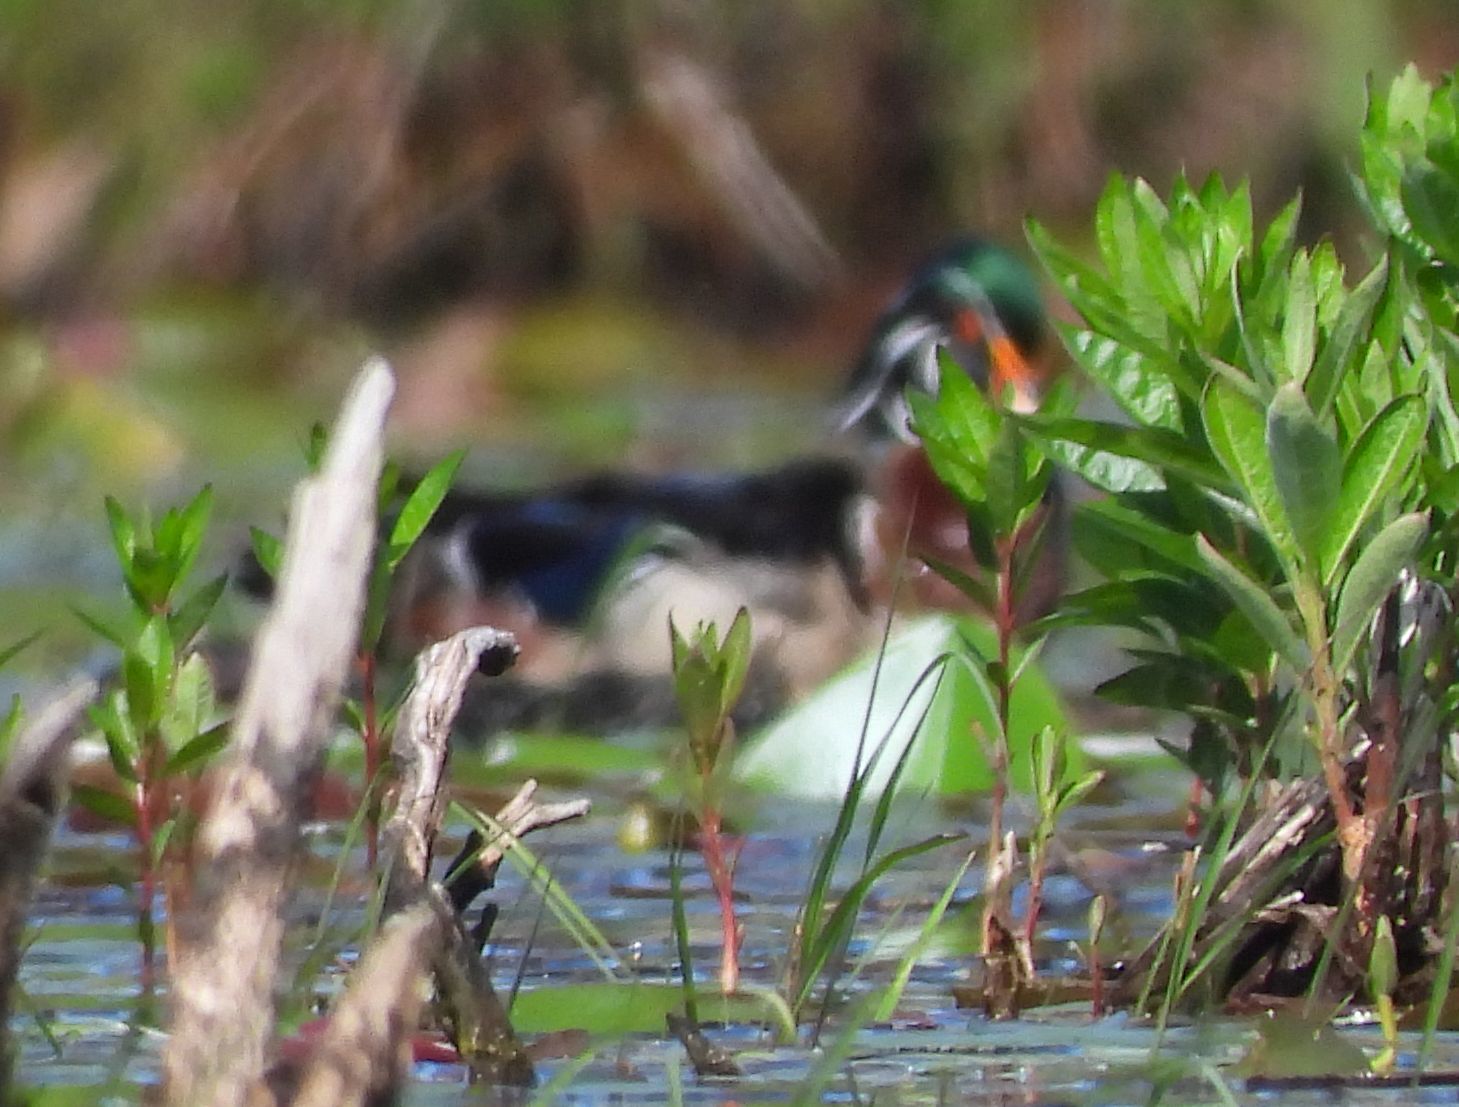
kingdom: Animalia
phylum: Chordata
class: Aves
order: Anseriformes
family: Anatidae
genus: Aix
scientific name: Aix sponsa
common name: Wood duck
